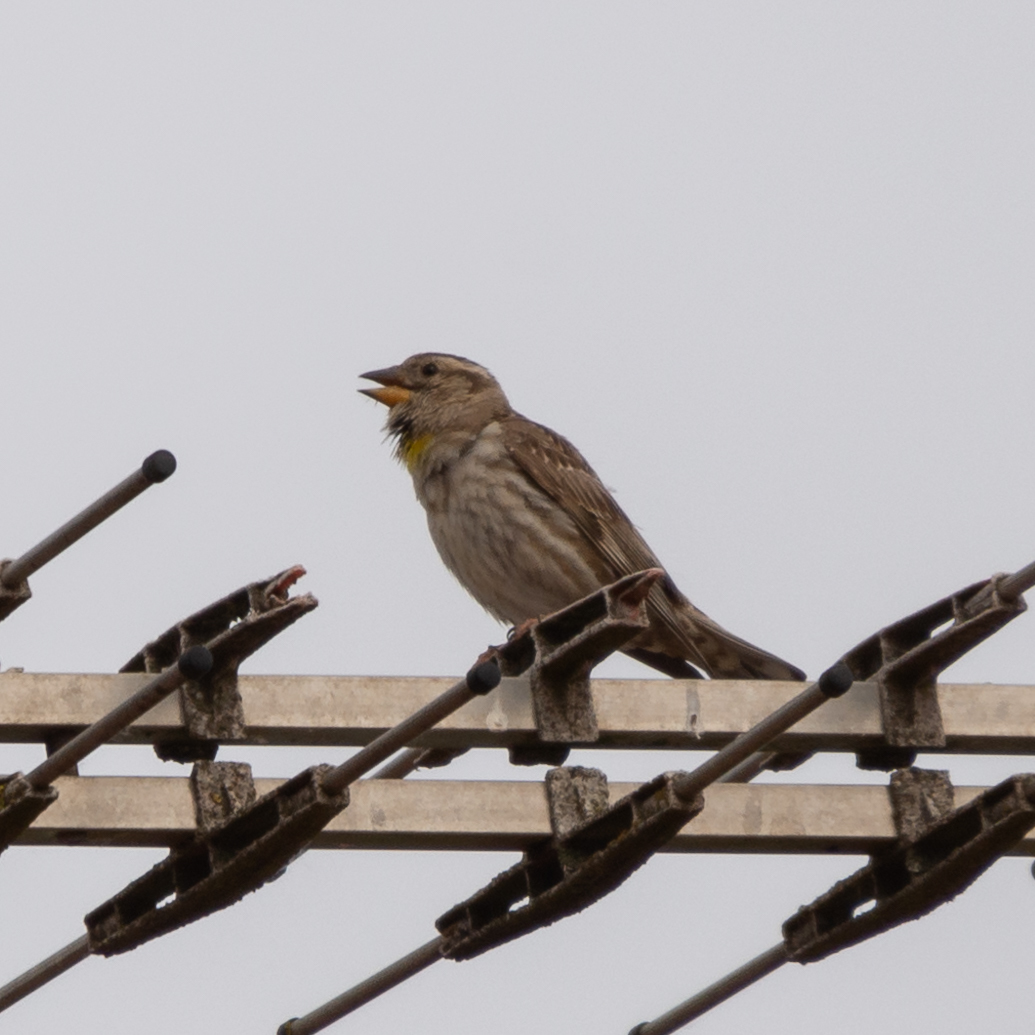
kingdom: Animalia
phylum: Chordata
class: Aves
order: Passeriformes
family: Passeridae
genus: Petronia
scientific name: Petronia petronia
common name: Rock sparrow
